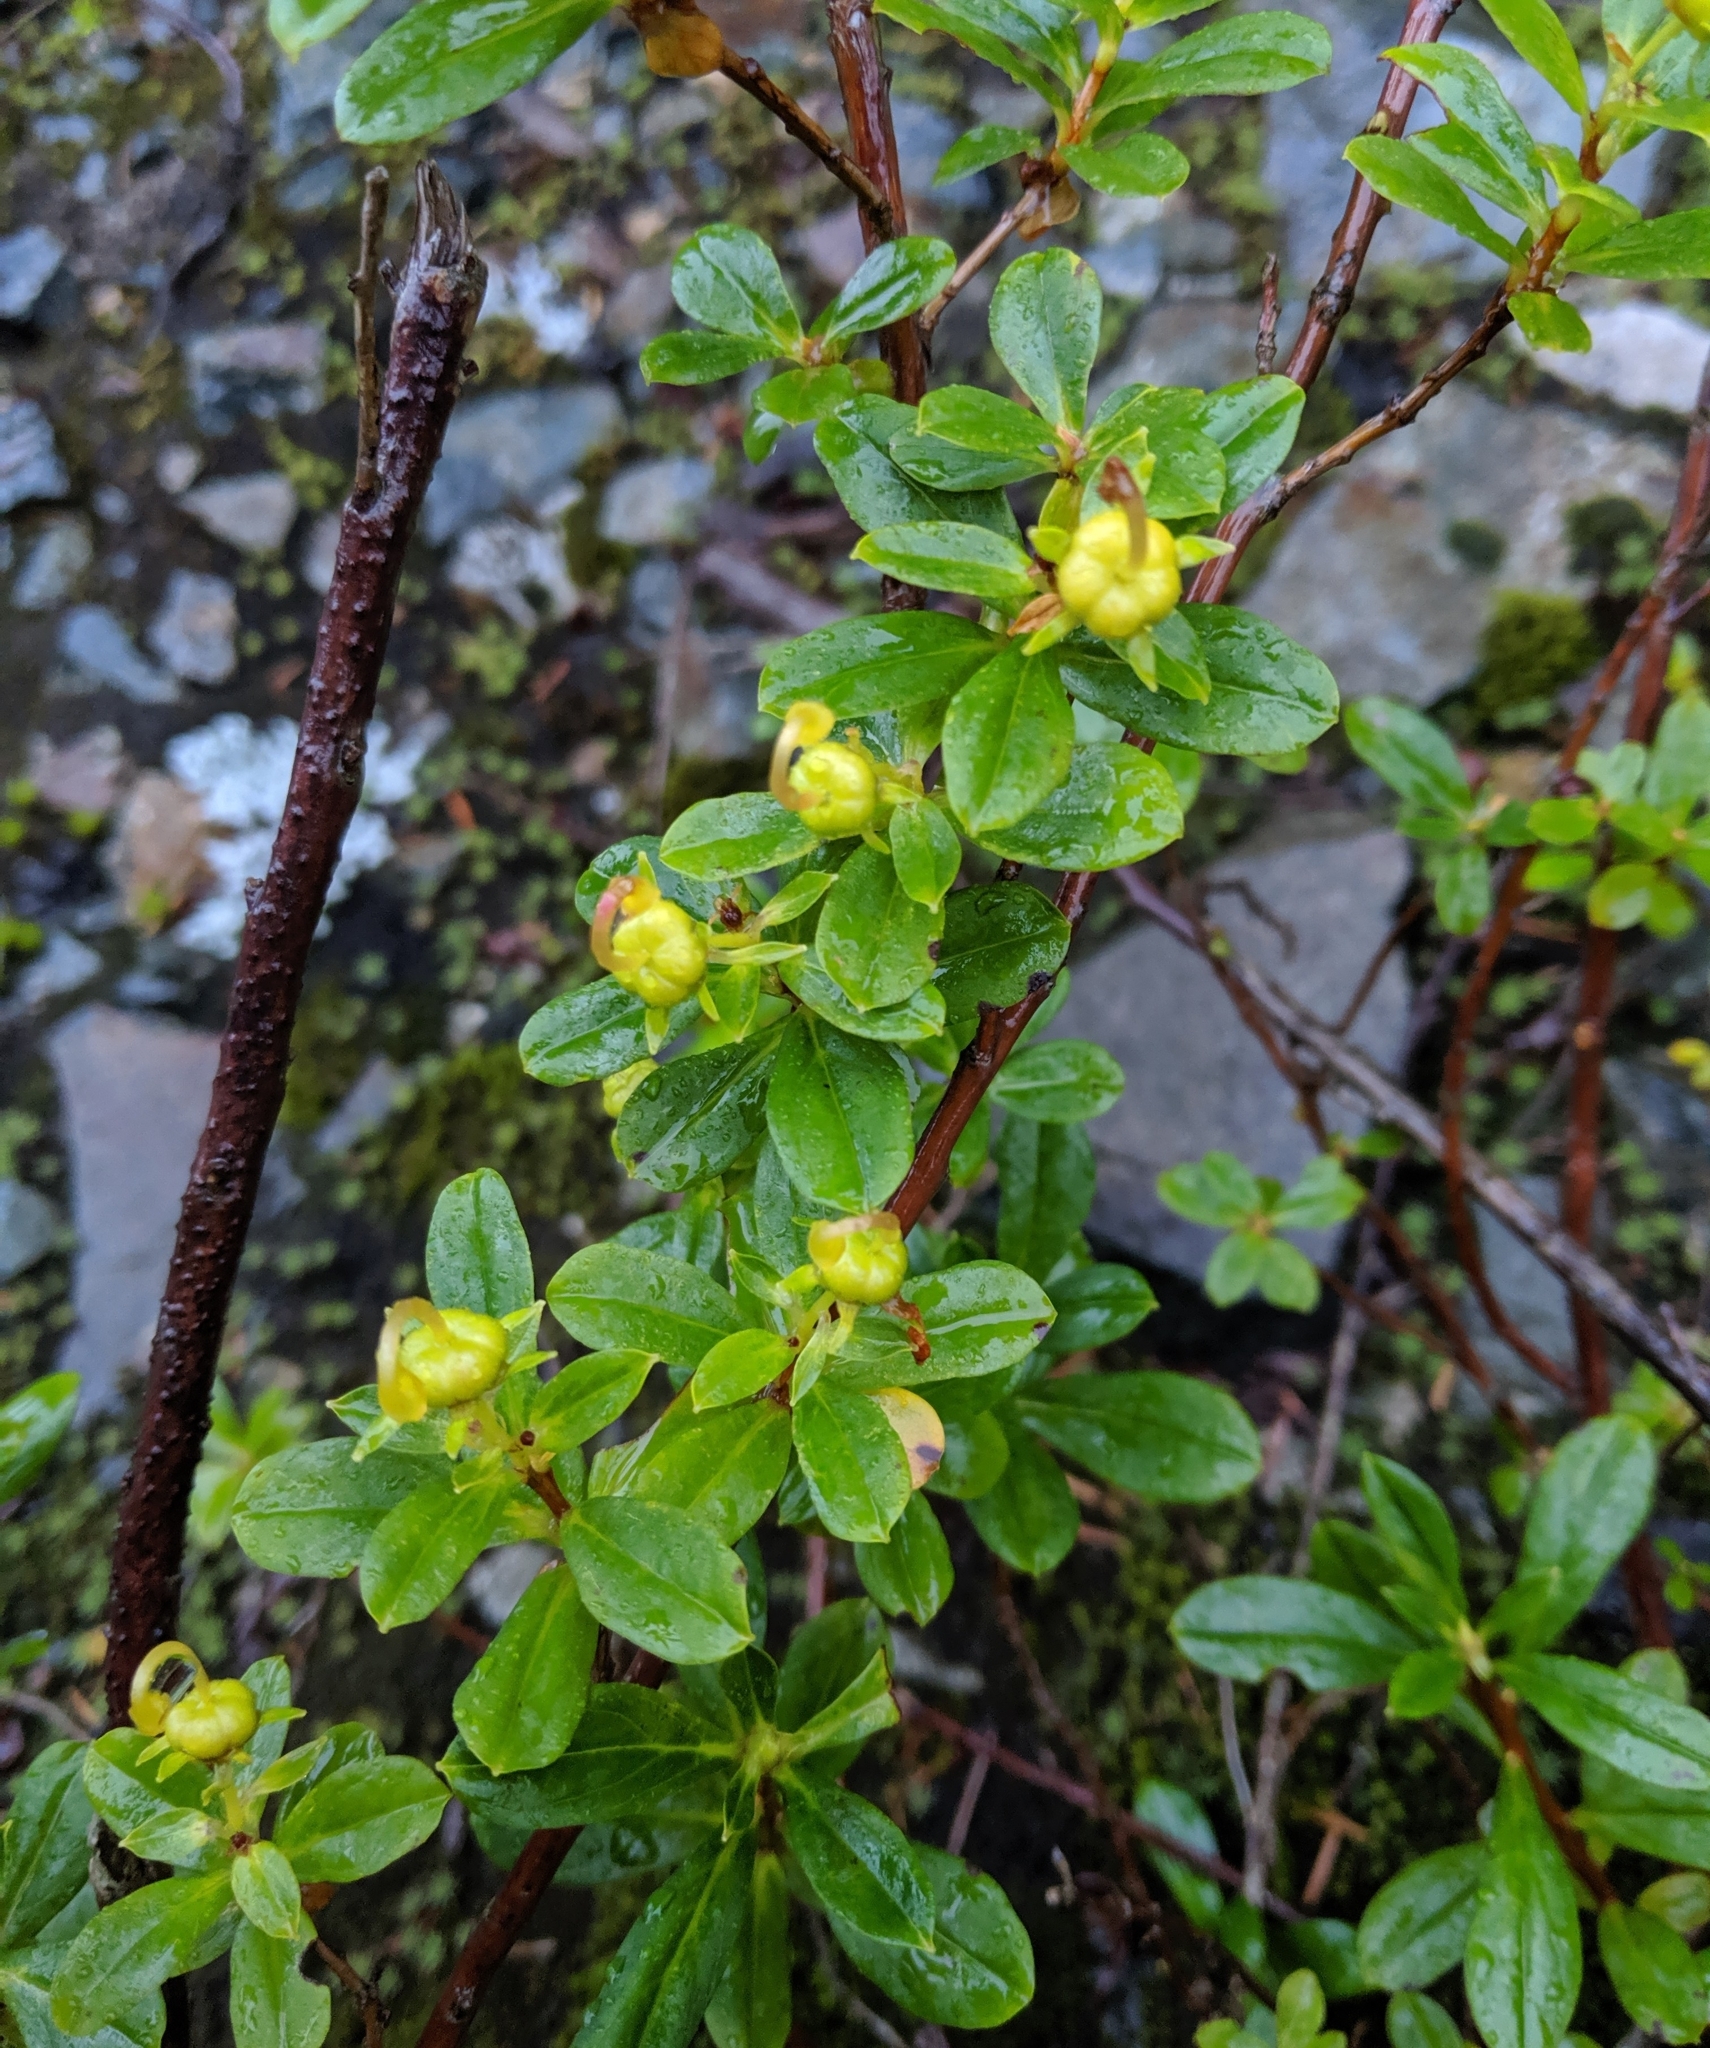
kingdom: Plantae
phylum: Tracheophyta
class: Magnoliopsida
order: Ericales
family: Ericaceae
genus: Elliottia
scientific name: Elliottia pyroliflora
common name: Copperbush
